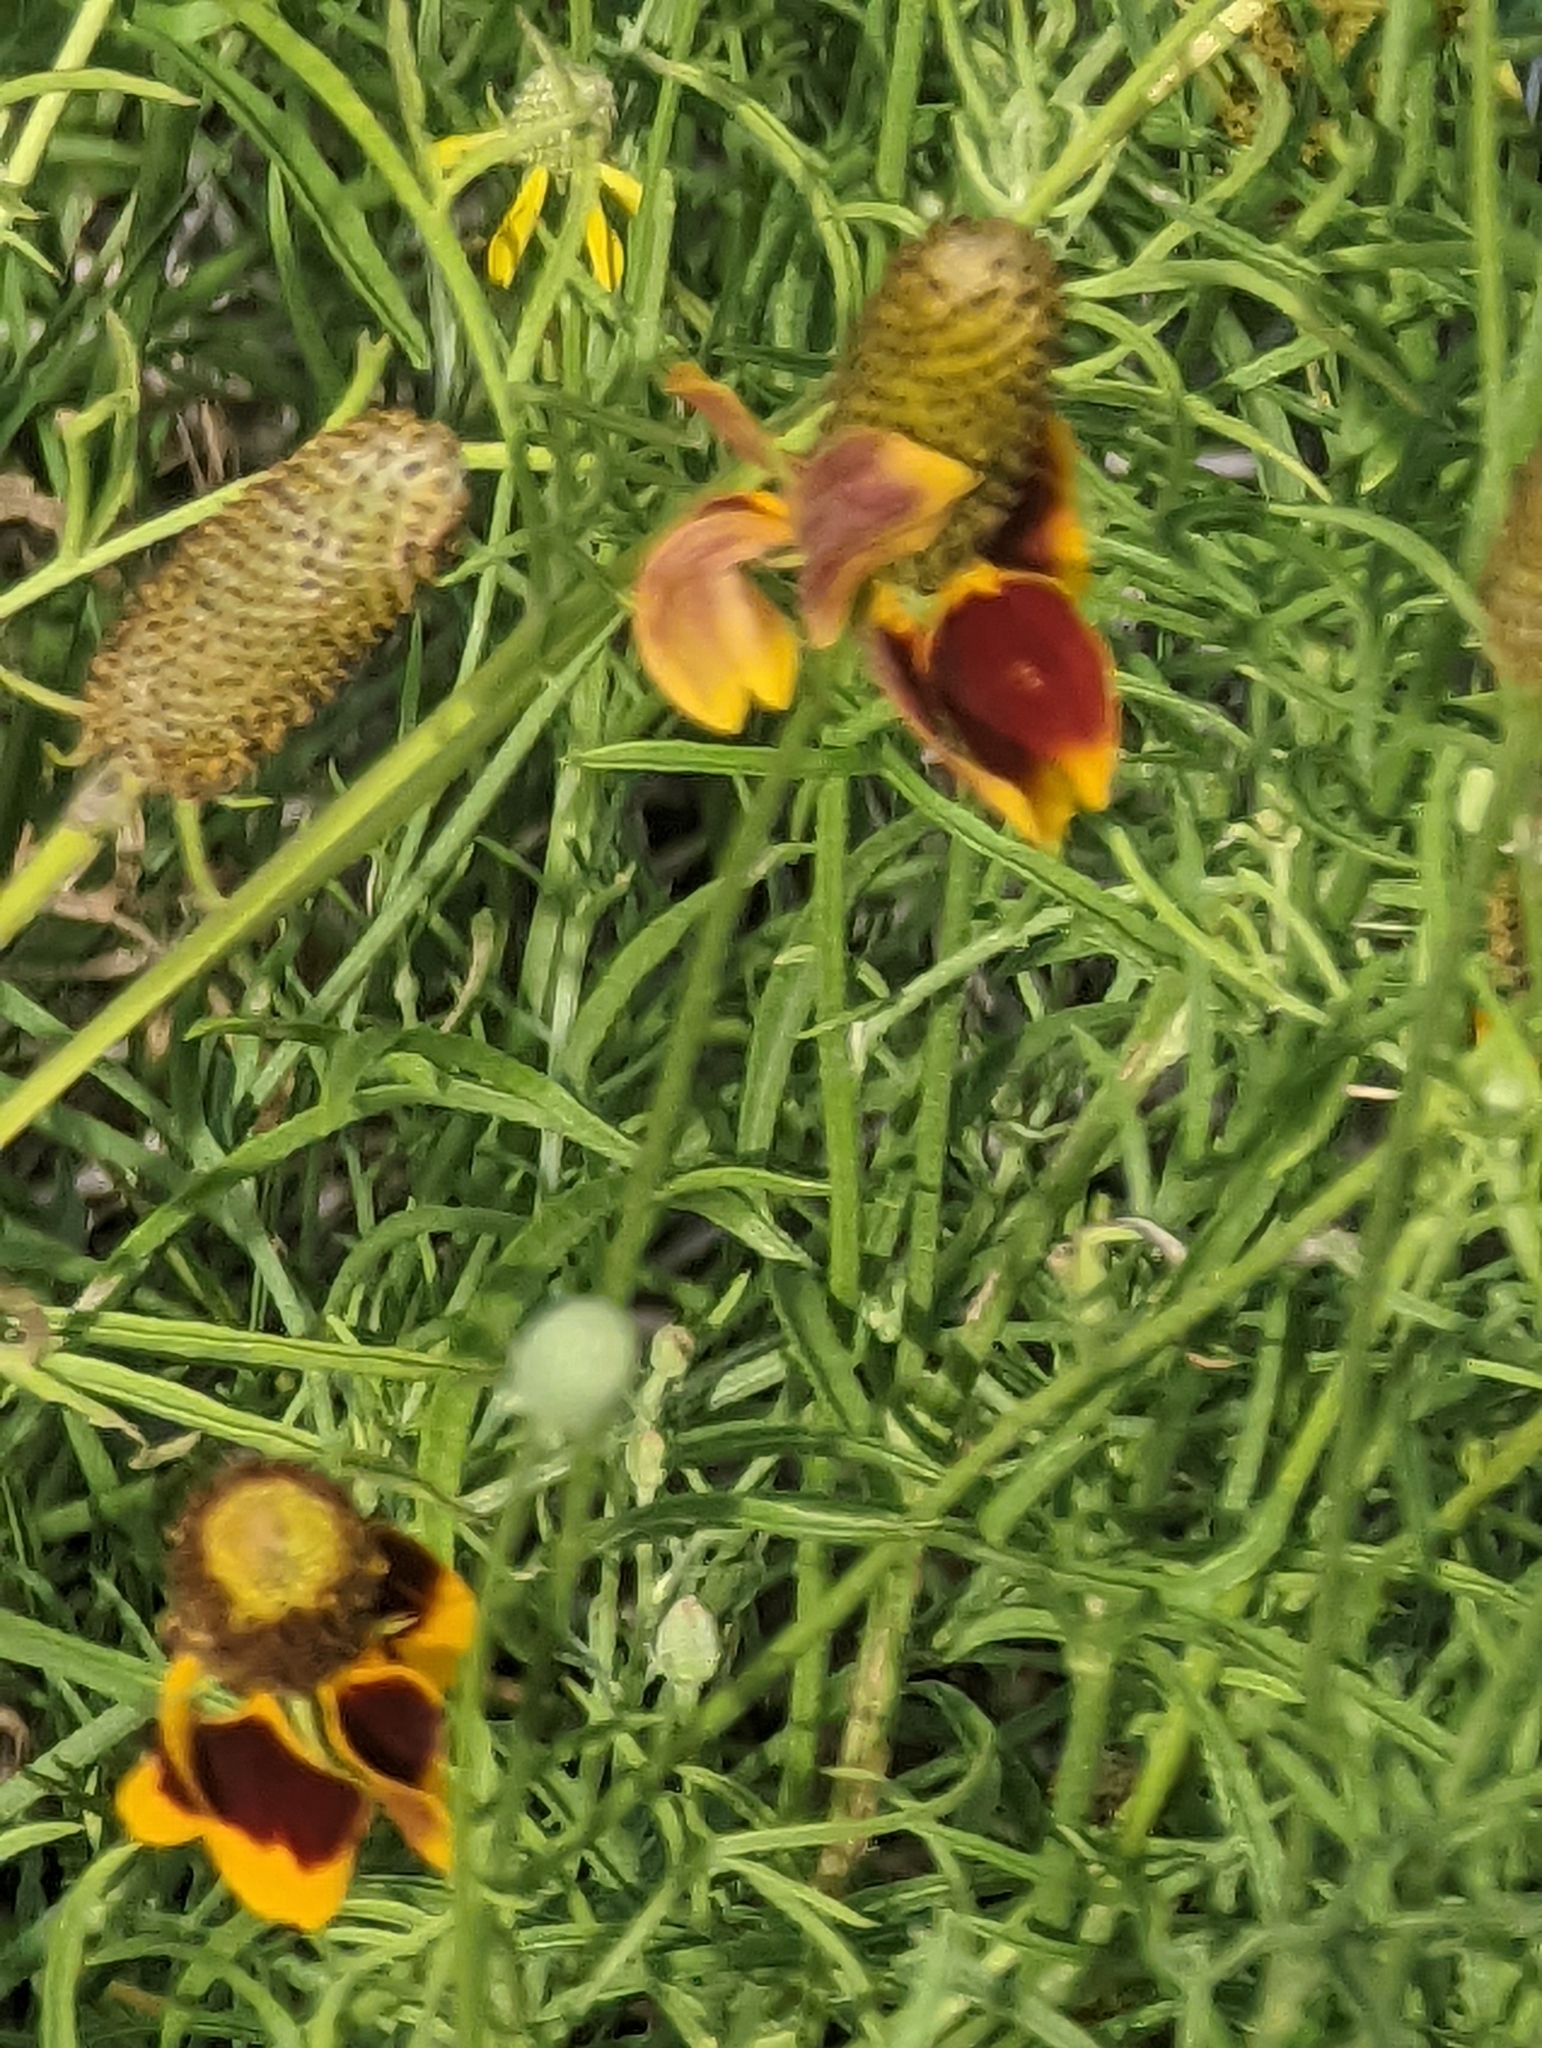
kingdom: Plantae
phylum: Tracheophyta
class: Magnoliopsida
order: Asterales
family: Asteraceae
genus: Ratibida
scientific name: Ratibida columnifera
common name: Prairie coneflower
